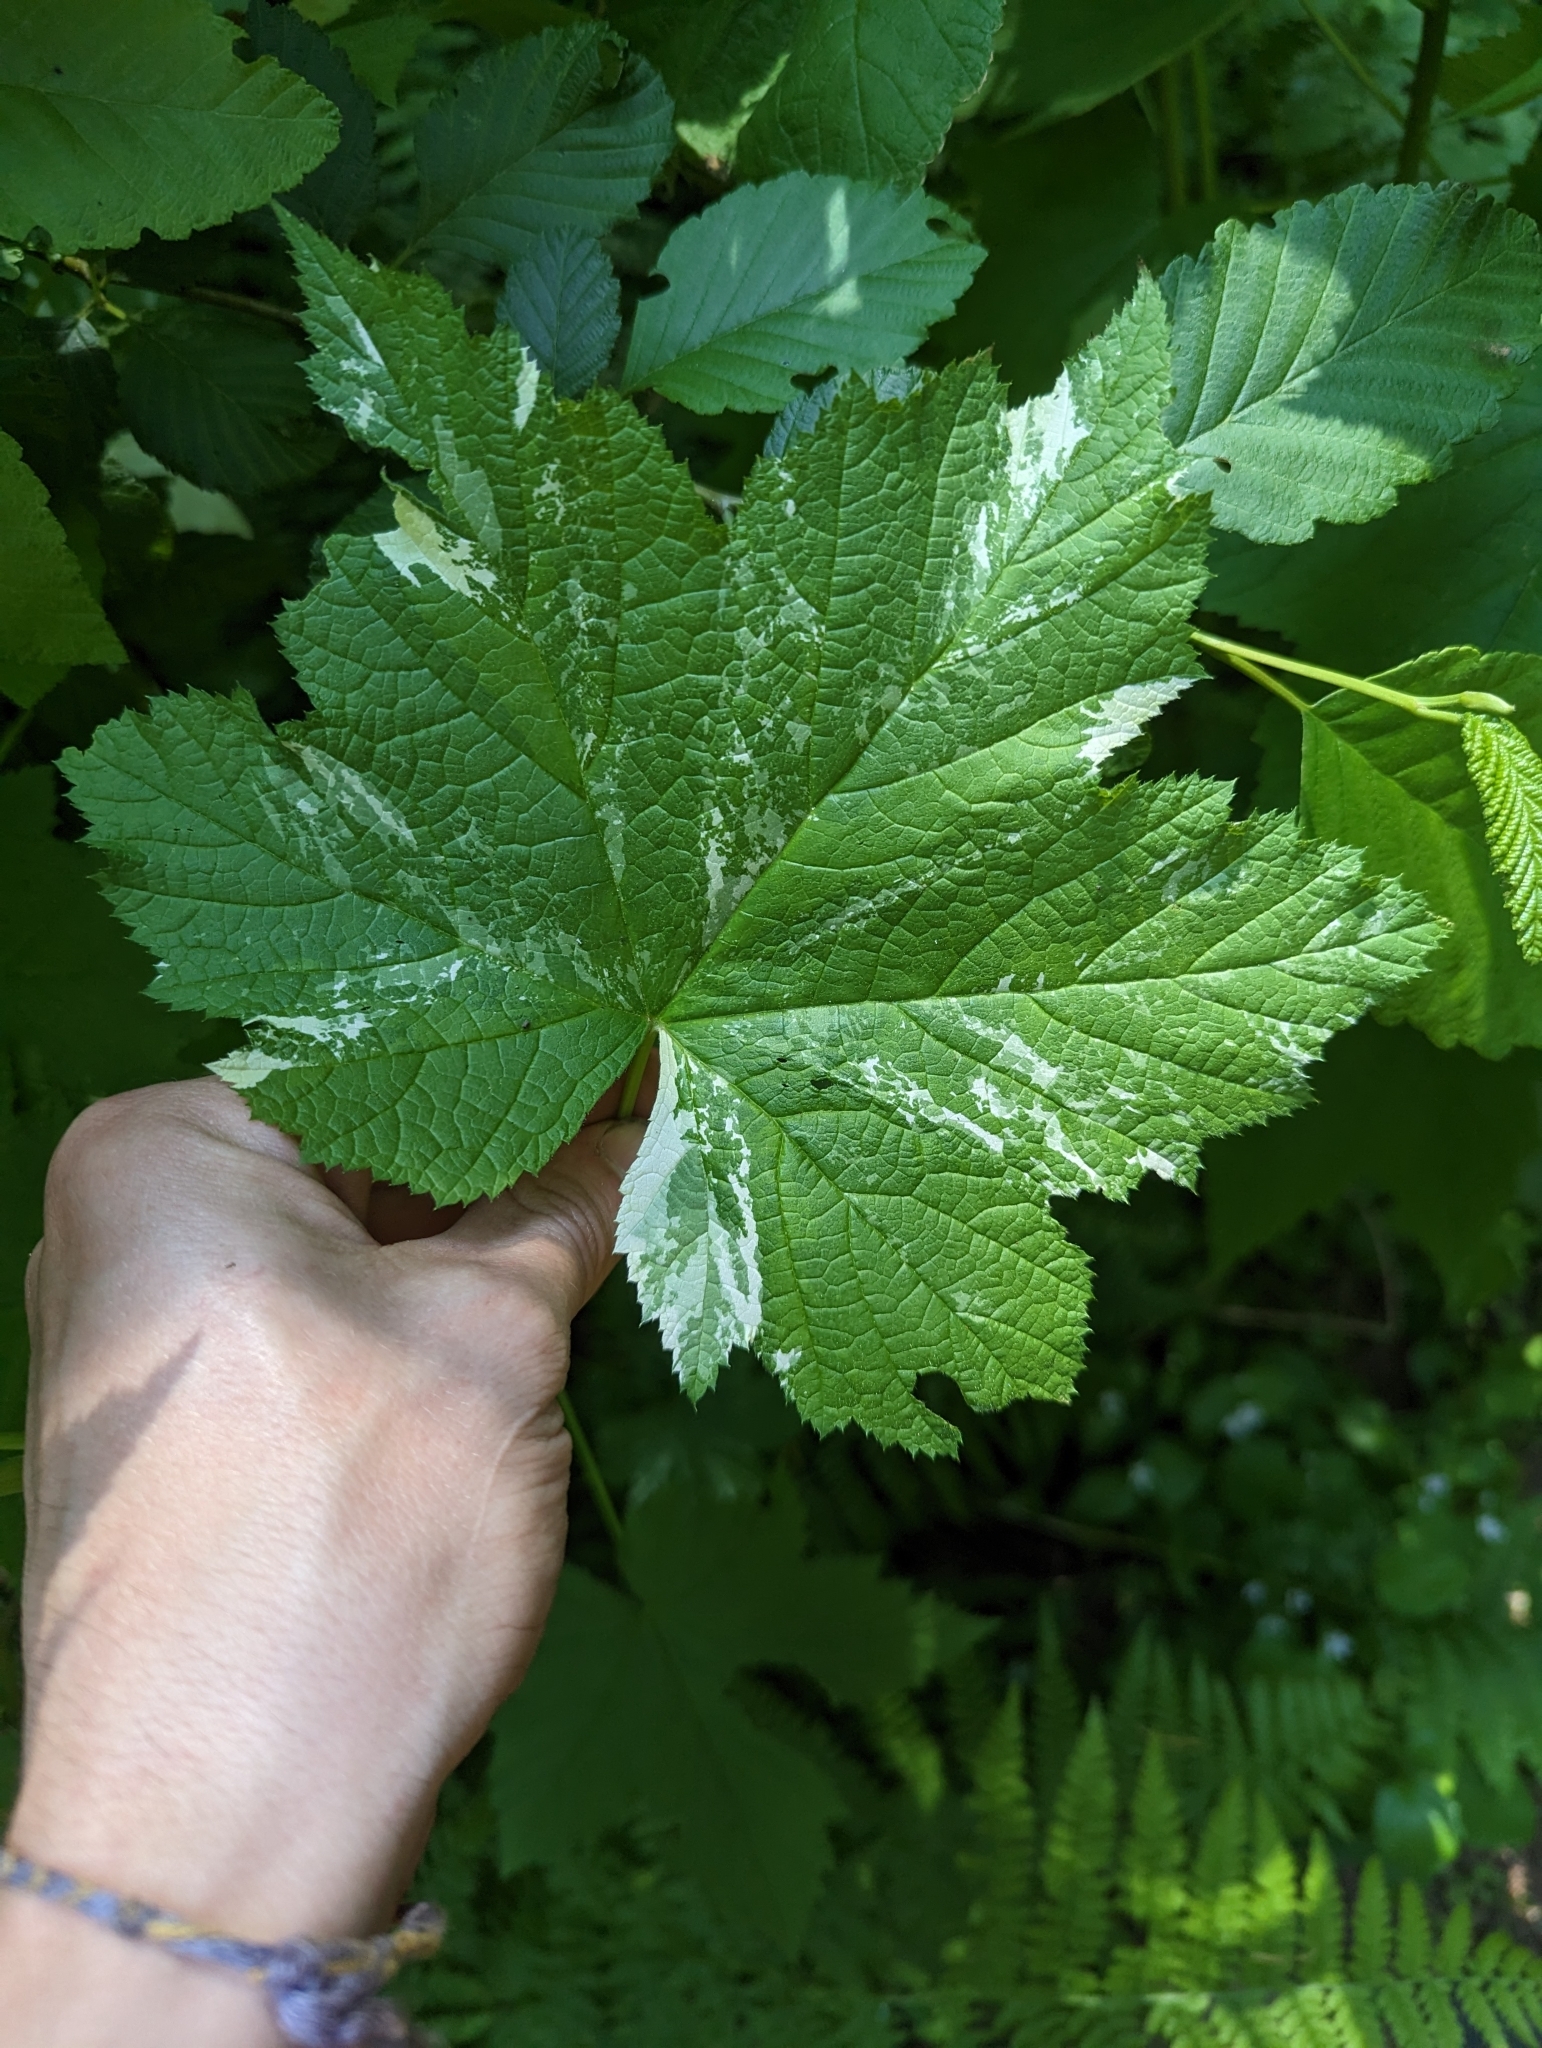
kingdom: Plantae
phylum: Tracheophyta
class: Magnoliopsida
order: Rosales
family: Rosaceae
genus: Rubus
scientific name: Rubus parviflorus
